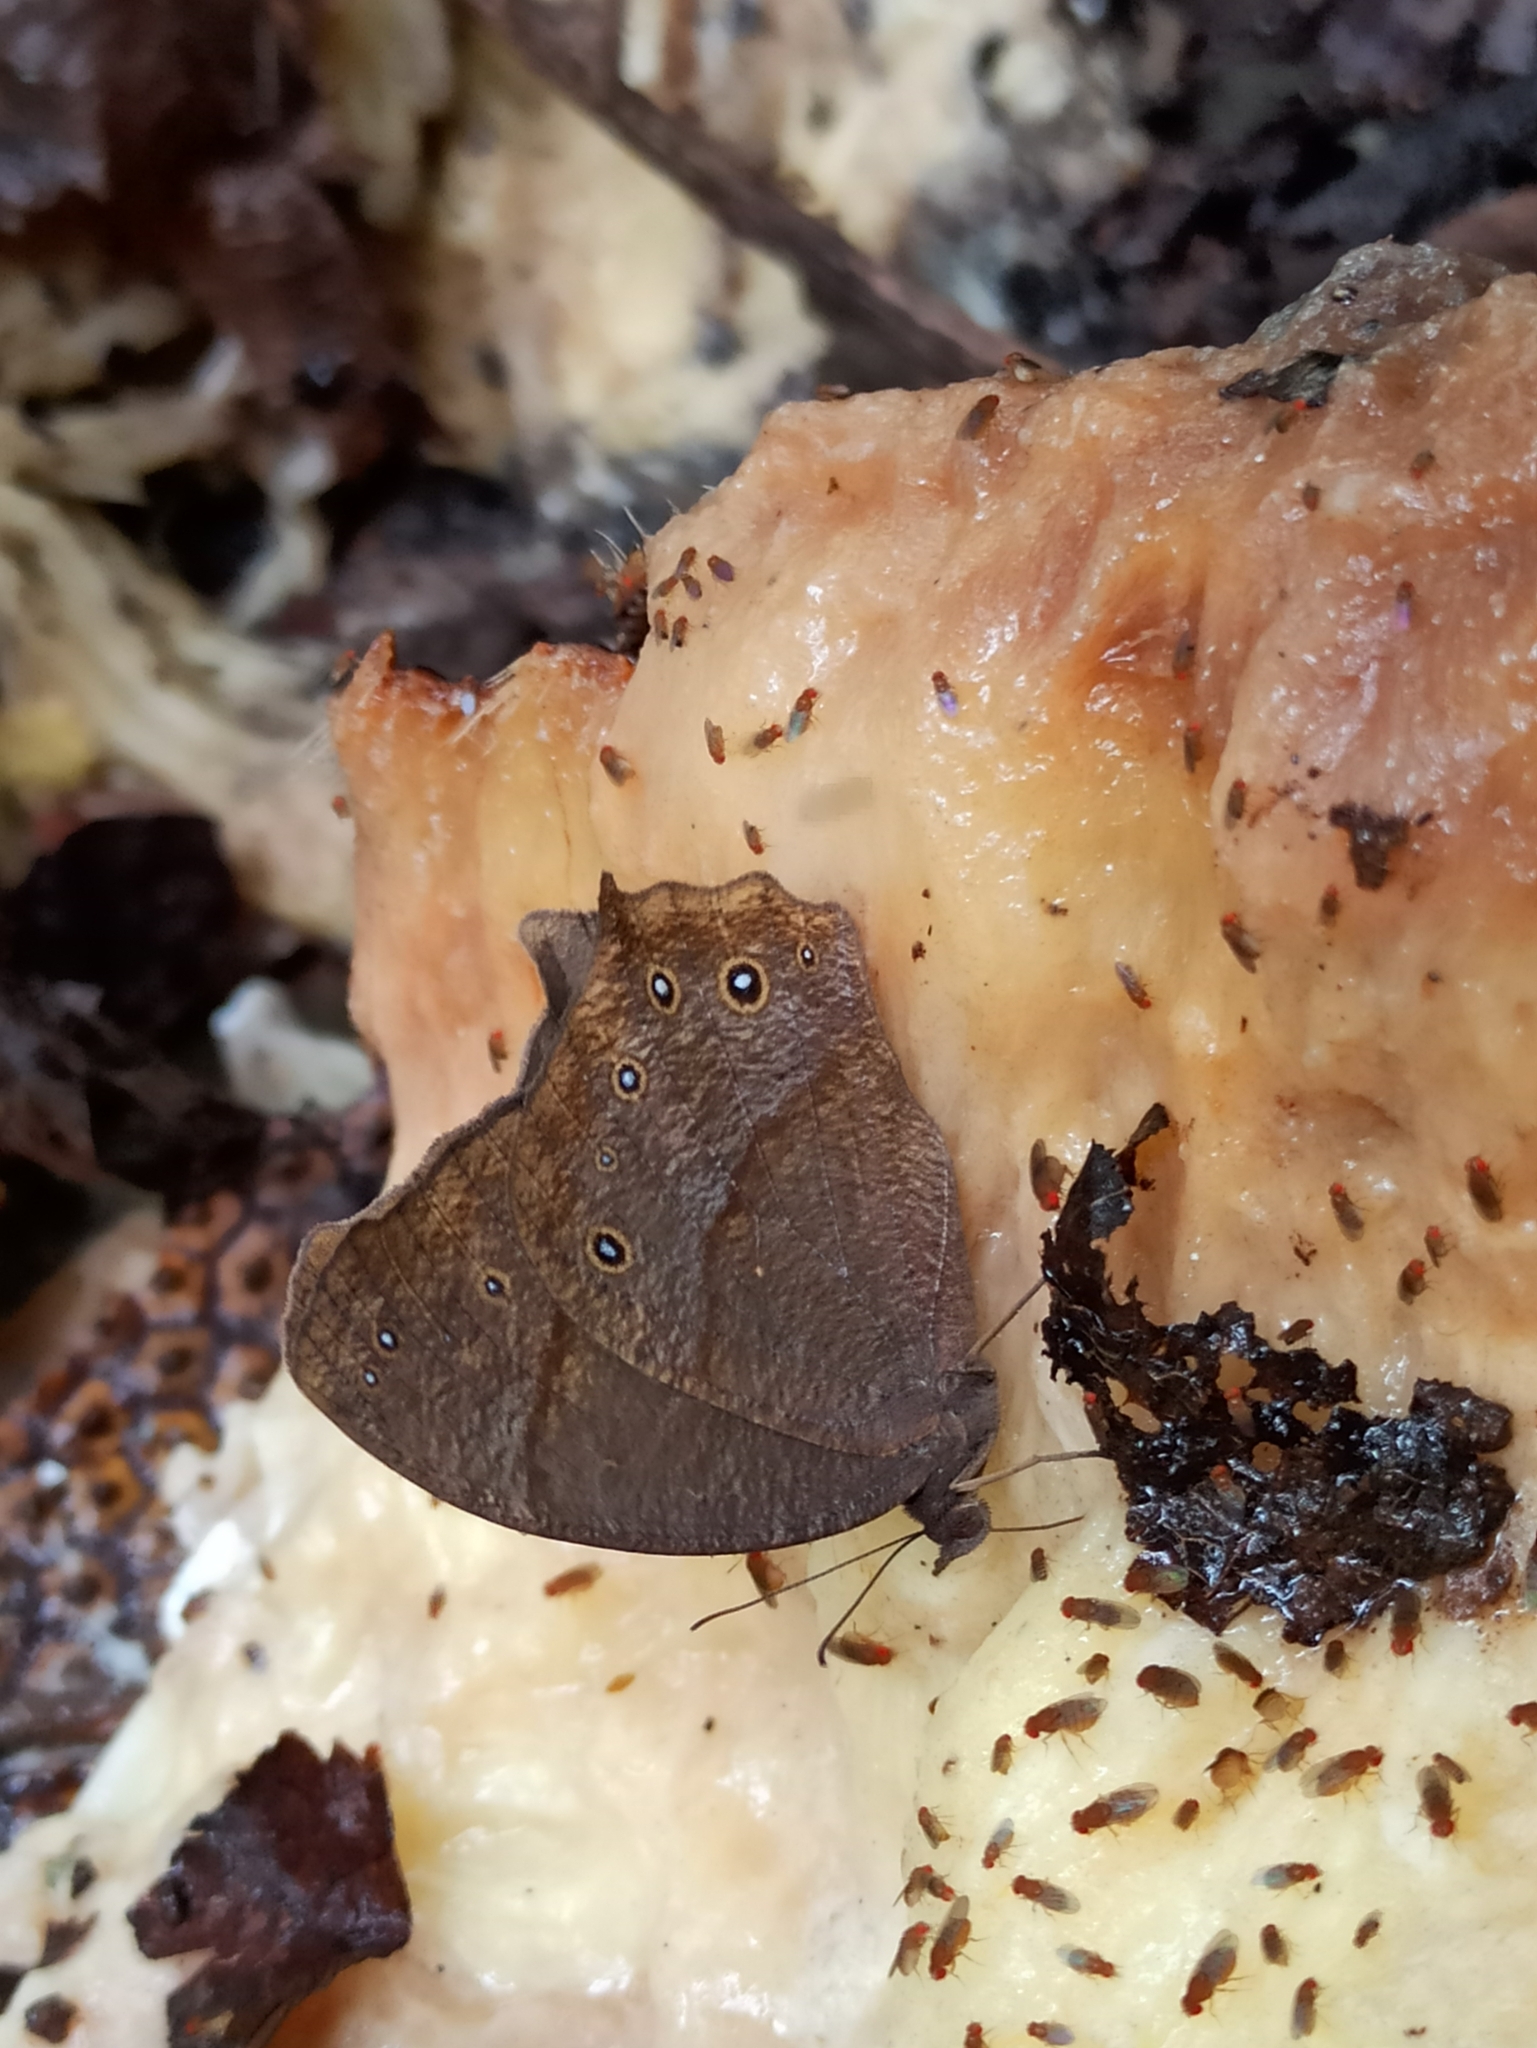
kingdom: Animalia
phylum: Arthropoda
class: Insecta
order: Lepidoptera
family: Nymphalidae
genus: Melanitis
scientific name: Melanitis leda
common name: Twilight brown
